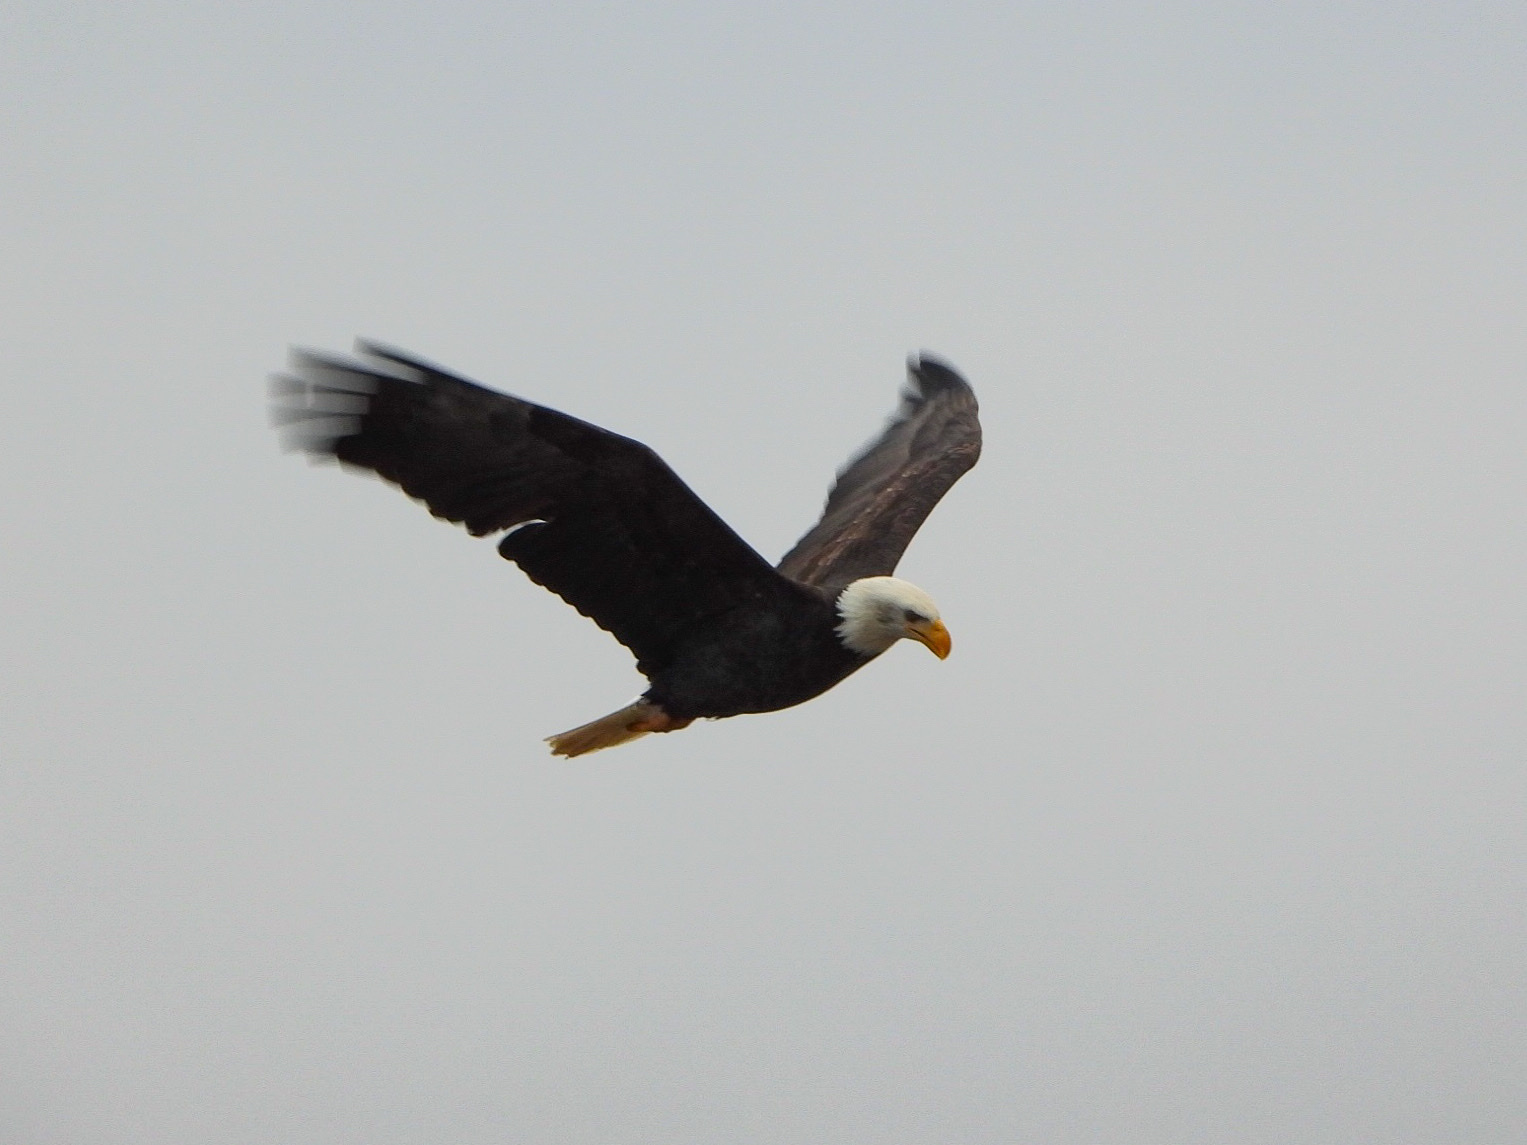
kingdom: Animalia
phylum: Chordata
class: Aves
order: Accipitriformes
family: Accipitridae
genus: Haliaeetus
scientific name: Haliaeetus leucocephalus
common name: Bald eagle
